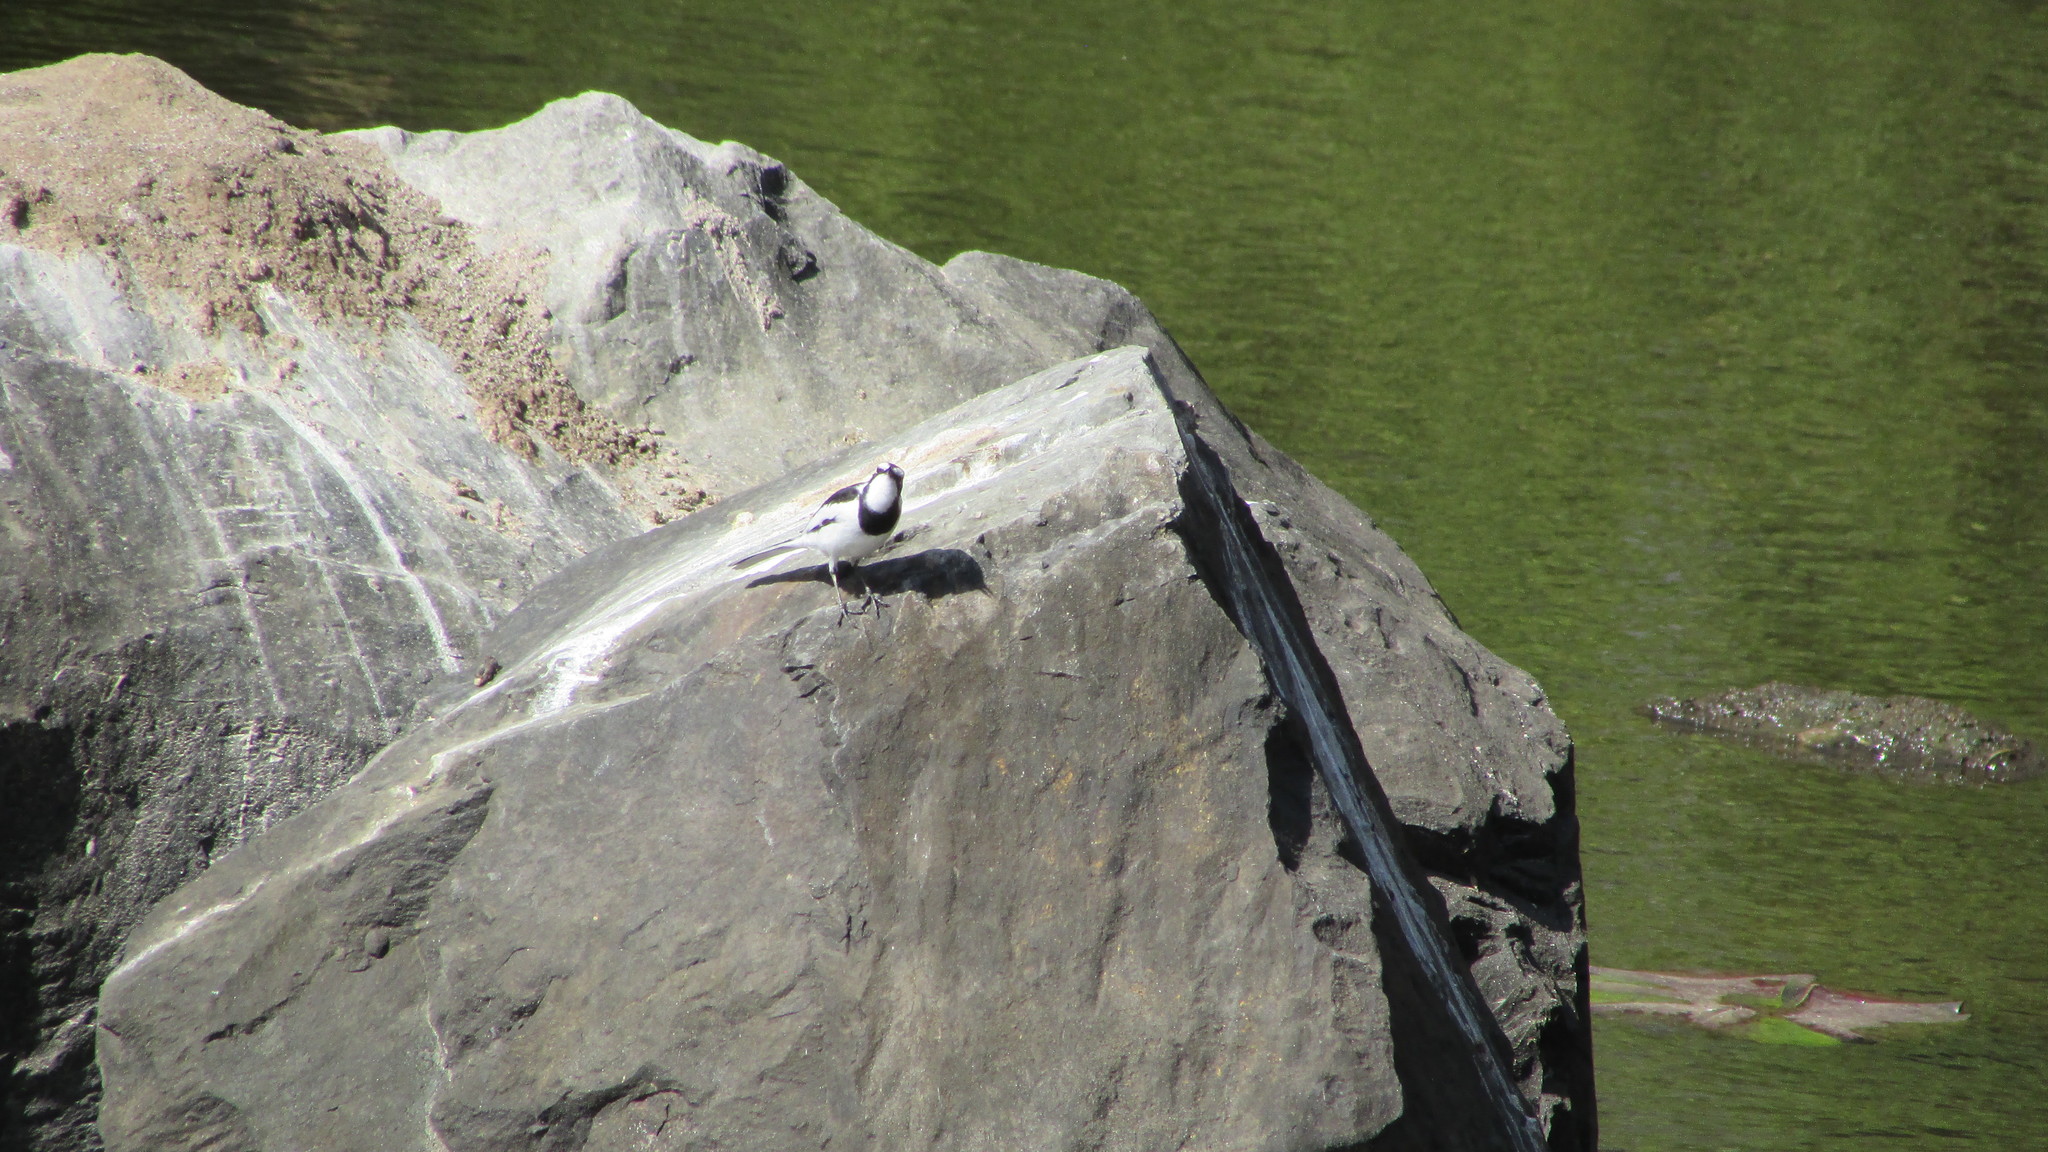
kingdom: Animalia
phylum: Chordata
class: Aves
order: Passeriformes
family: Motacillidae
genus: Motacilla
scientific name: Motacilla aguimp
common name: African pied wagtail
